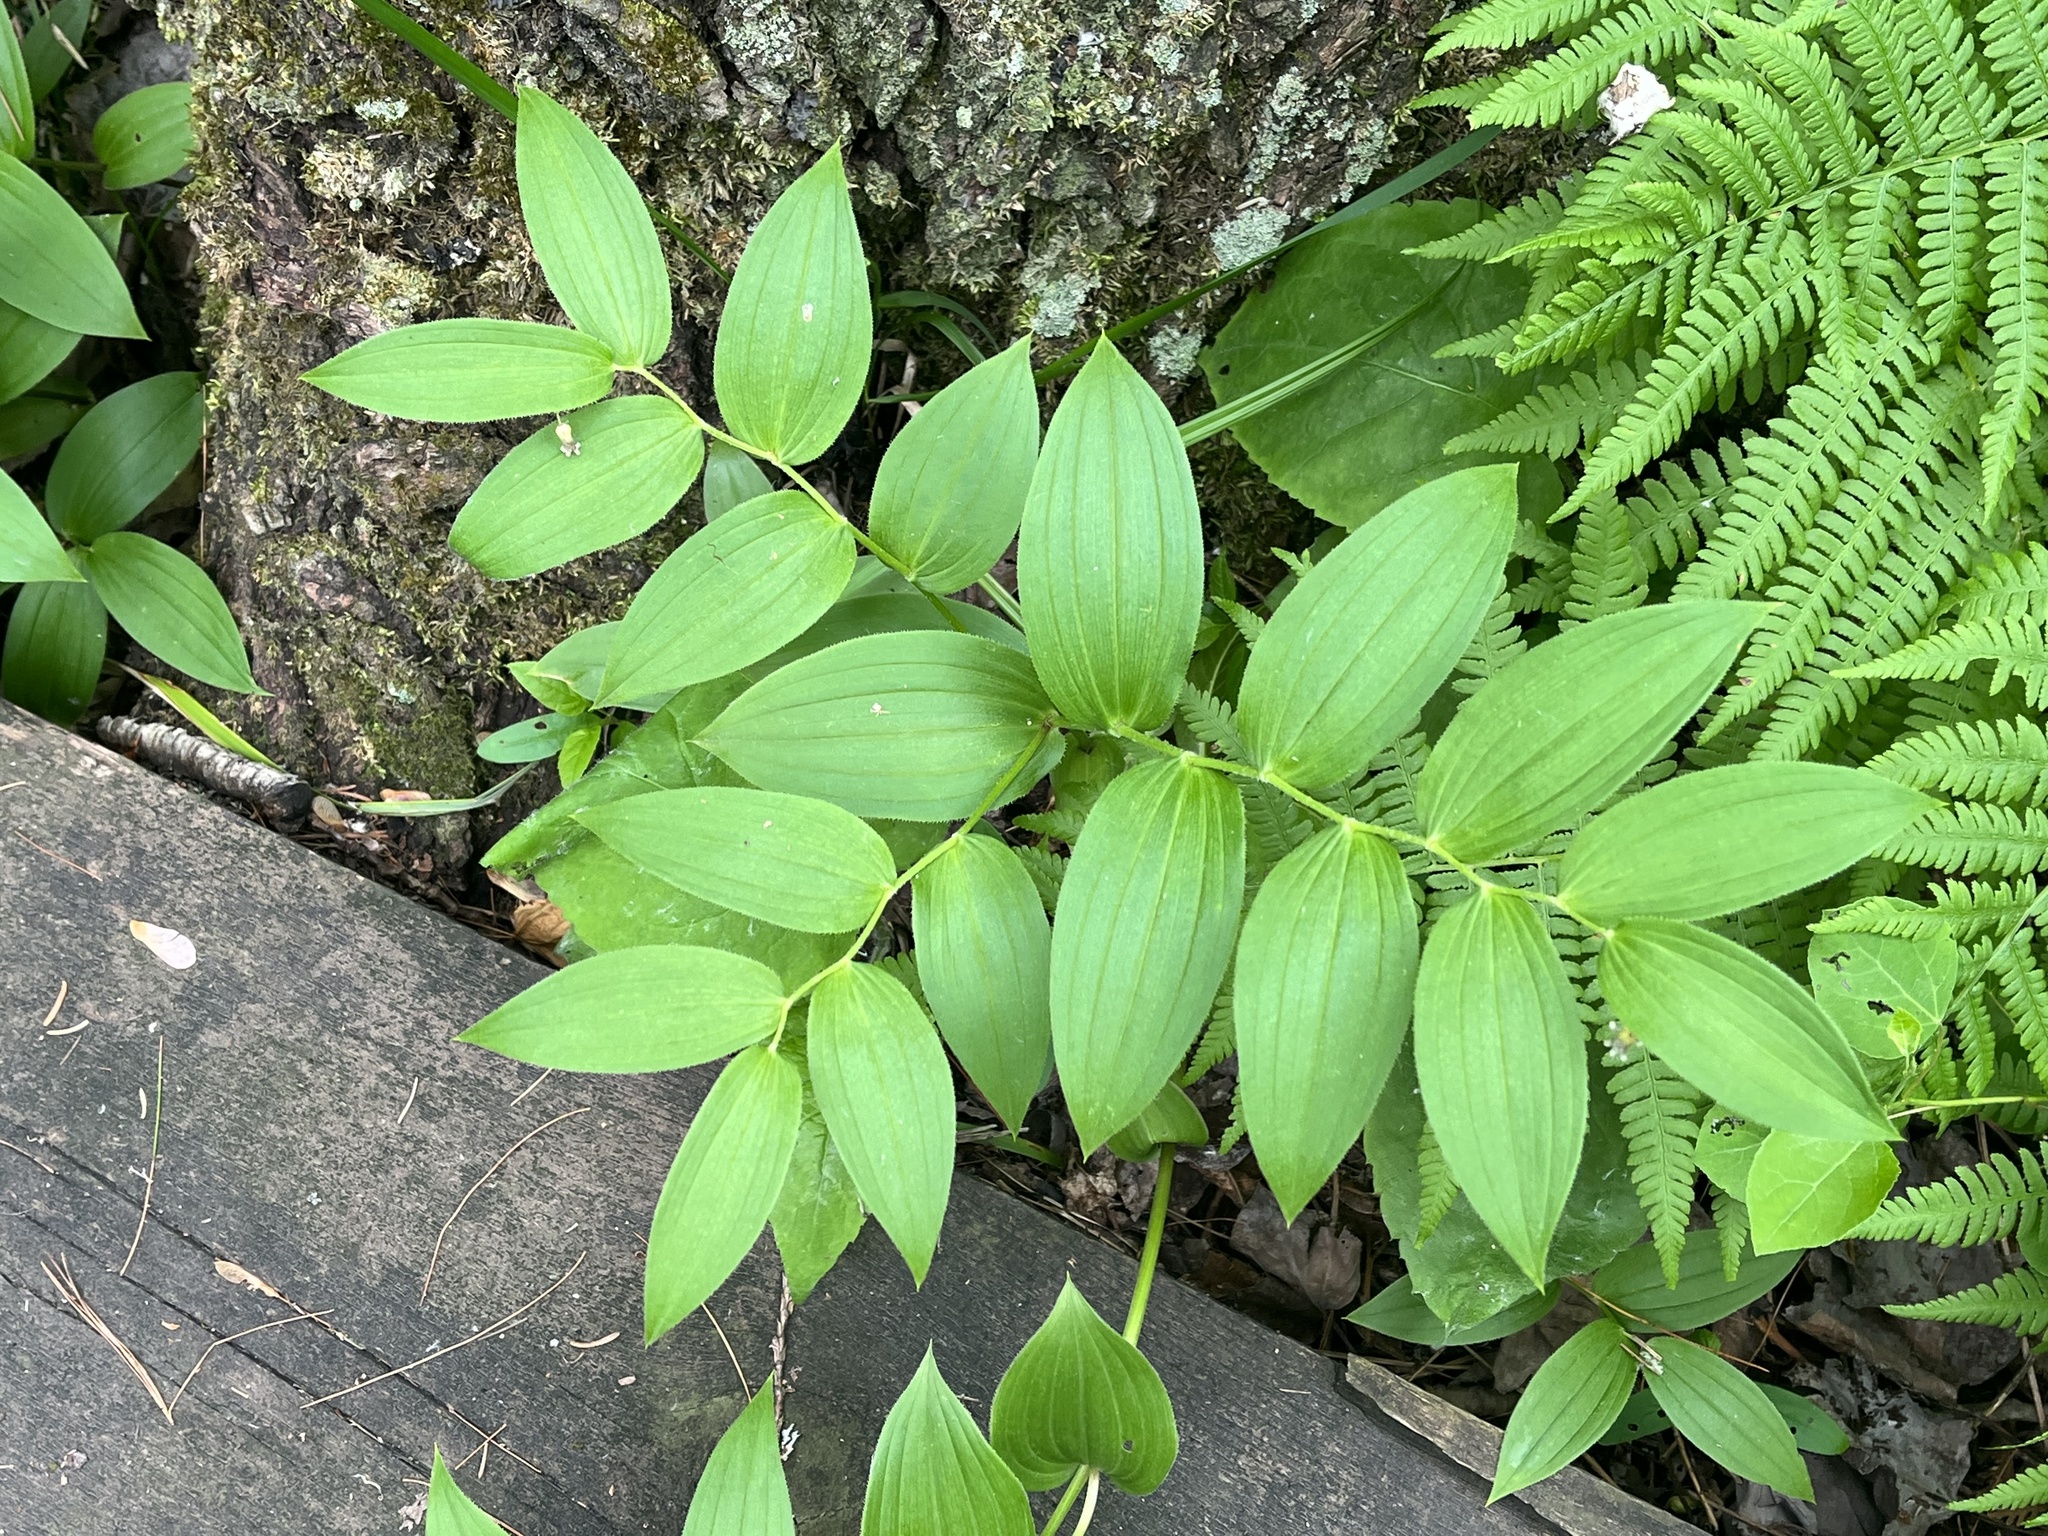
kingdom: Plantae
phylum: Tracheophyta
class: Liliopsida
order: Liliales
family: Liliaceae
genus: Streptopus
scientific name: Streptopus lanceolatus
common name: Rose mandarin
